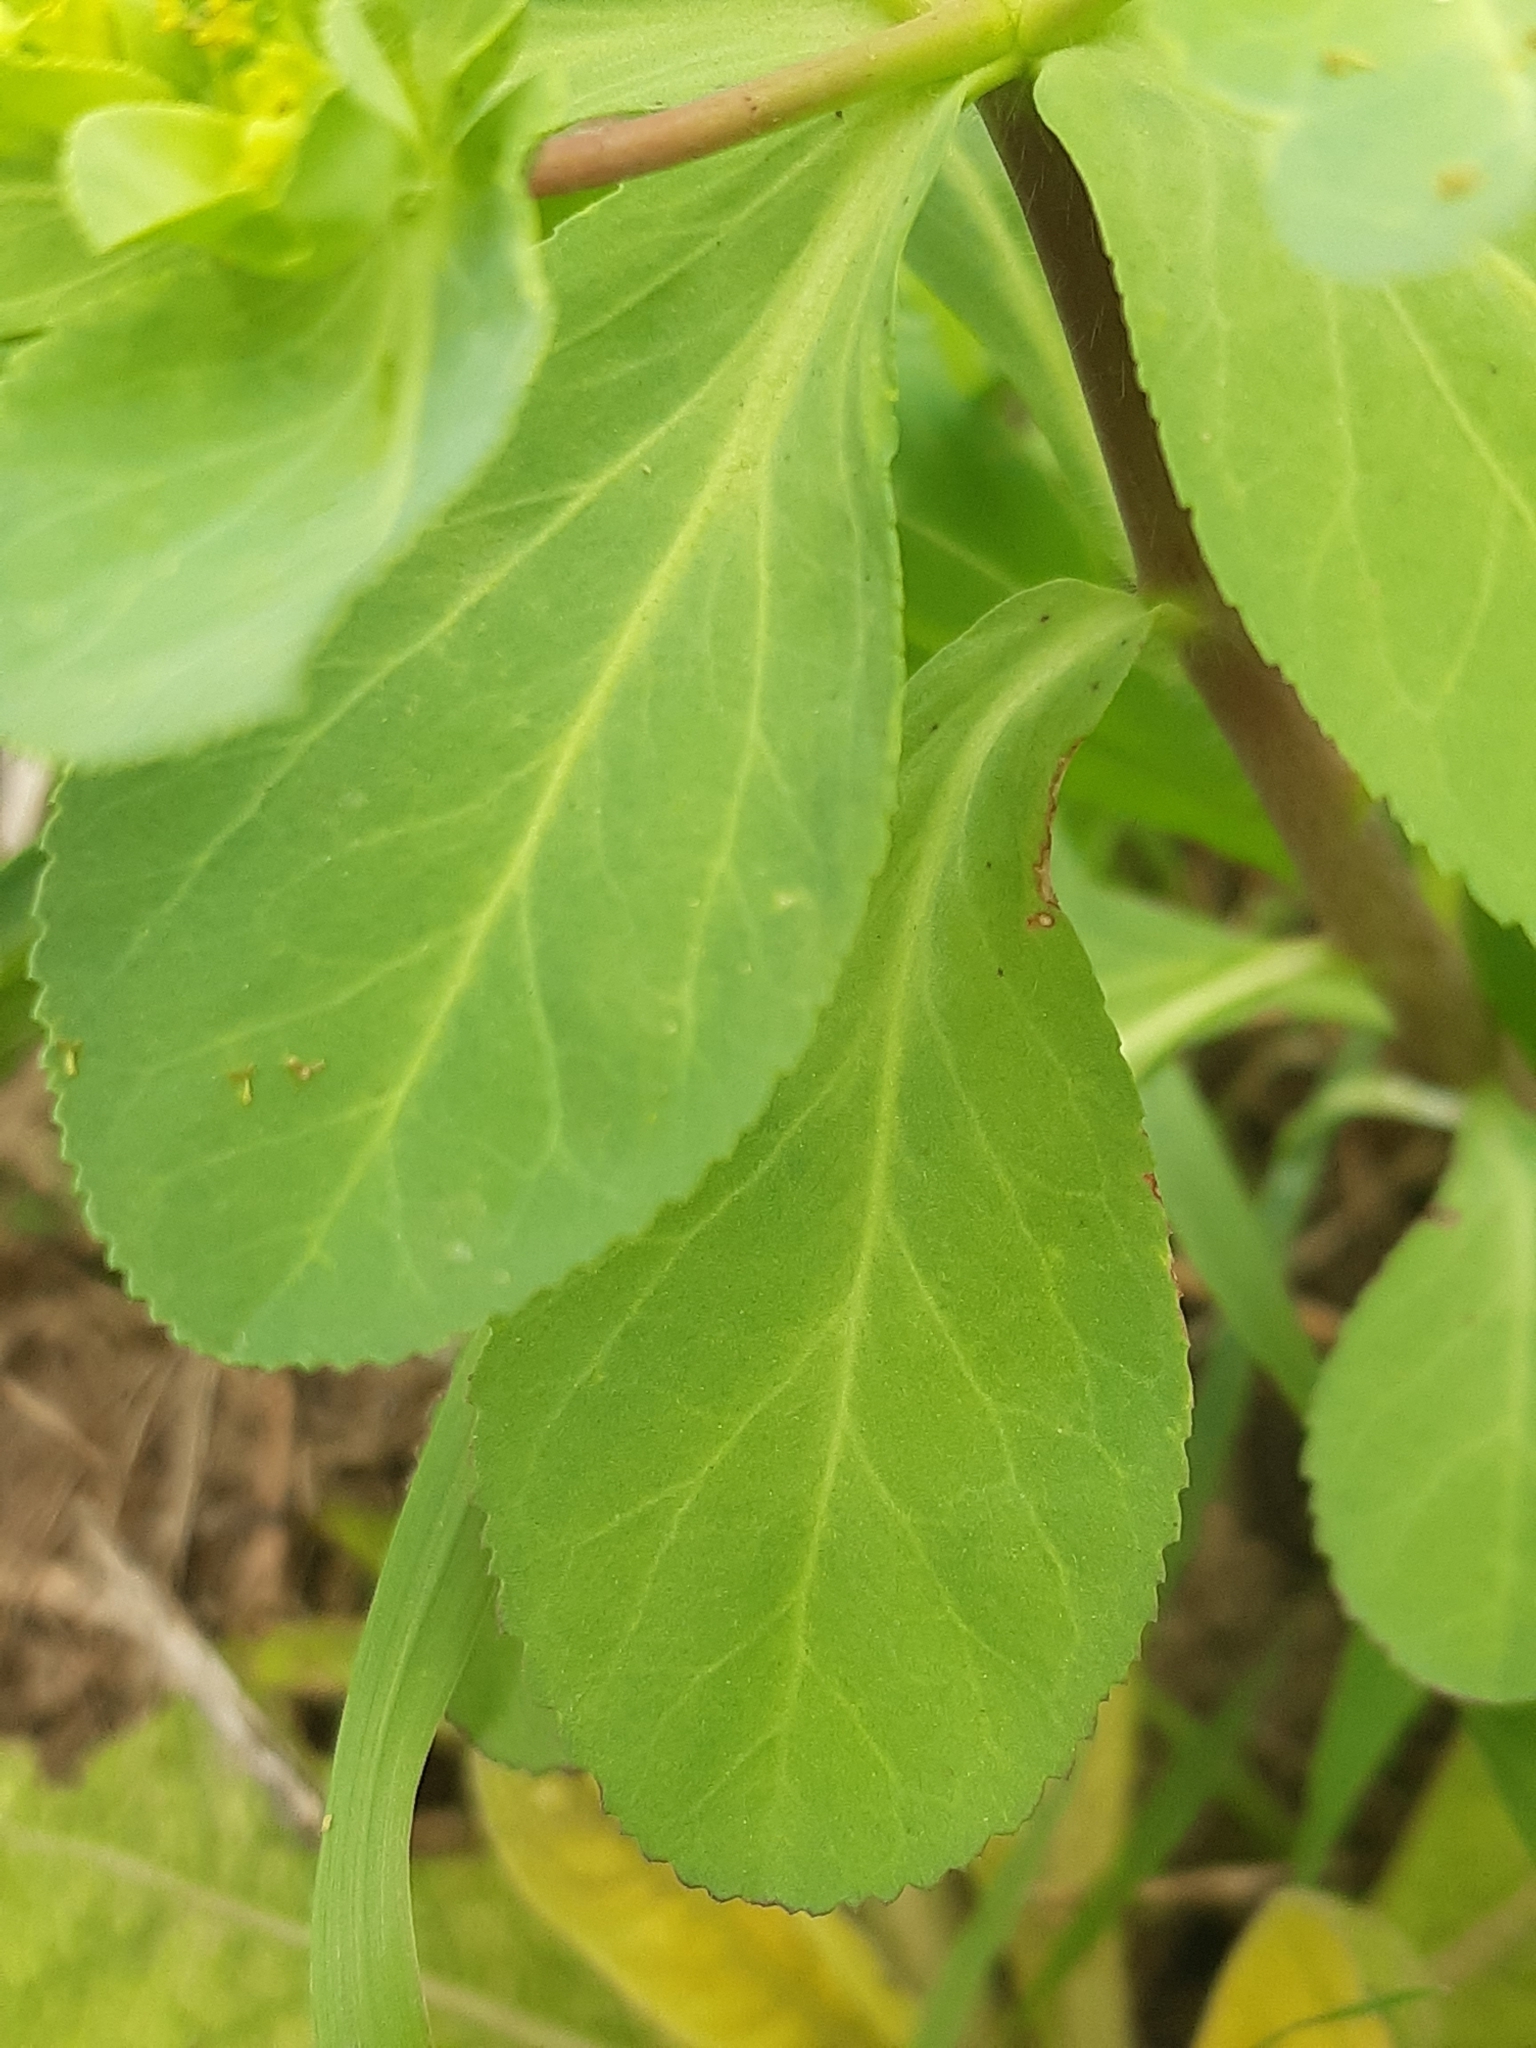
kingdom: Plantae
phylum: Tracheophyta
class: Magnoliopsida
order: Malpighiales
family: Euphorbiaceae
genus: Euphorbia
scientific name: Euphorbia helioscopia
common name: Sun spurge
